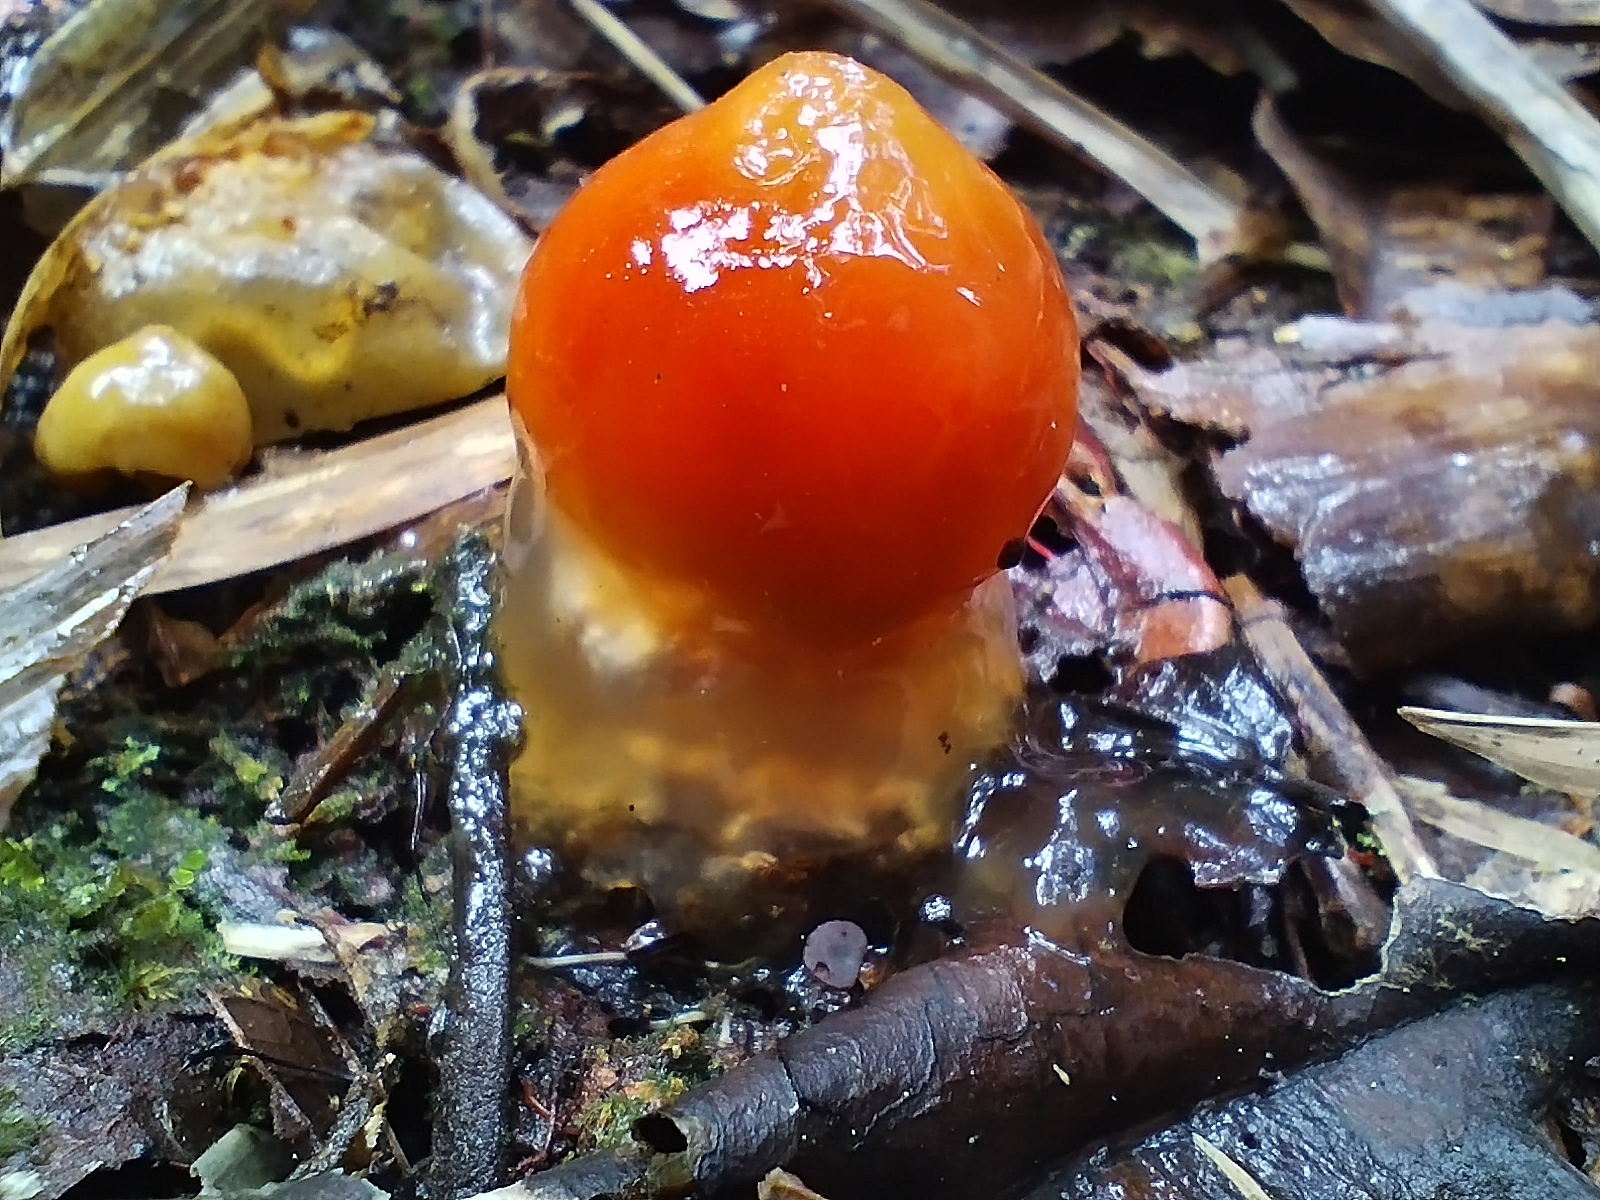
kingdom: Fungi
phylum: Basidiomycota
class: Agaricomycetes
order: Boletales
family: Calostomataceae
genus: Calostoma
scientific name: Calostoma cinnabarinum
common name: Stalked puffball-in-aspic
